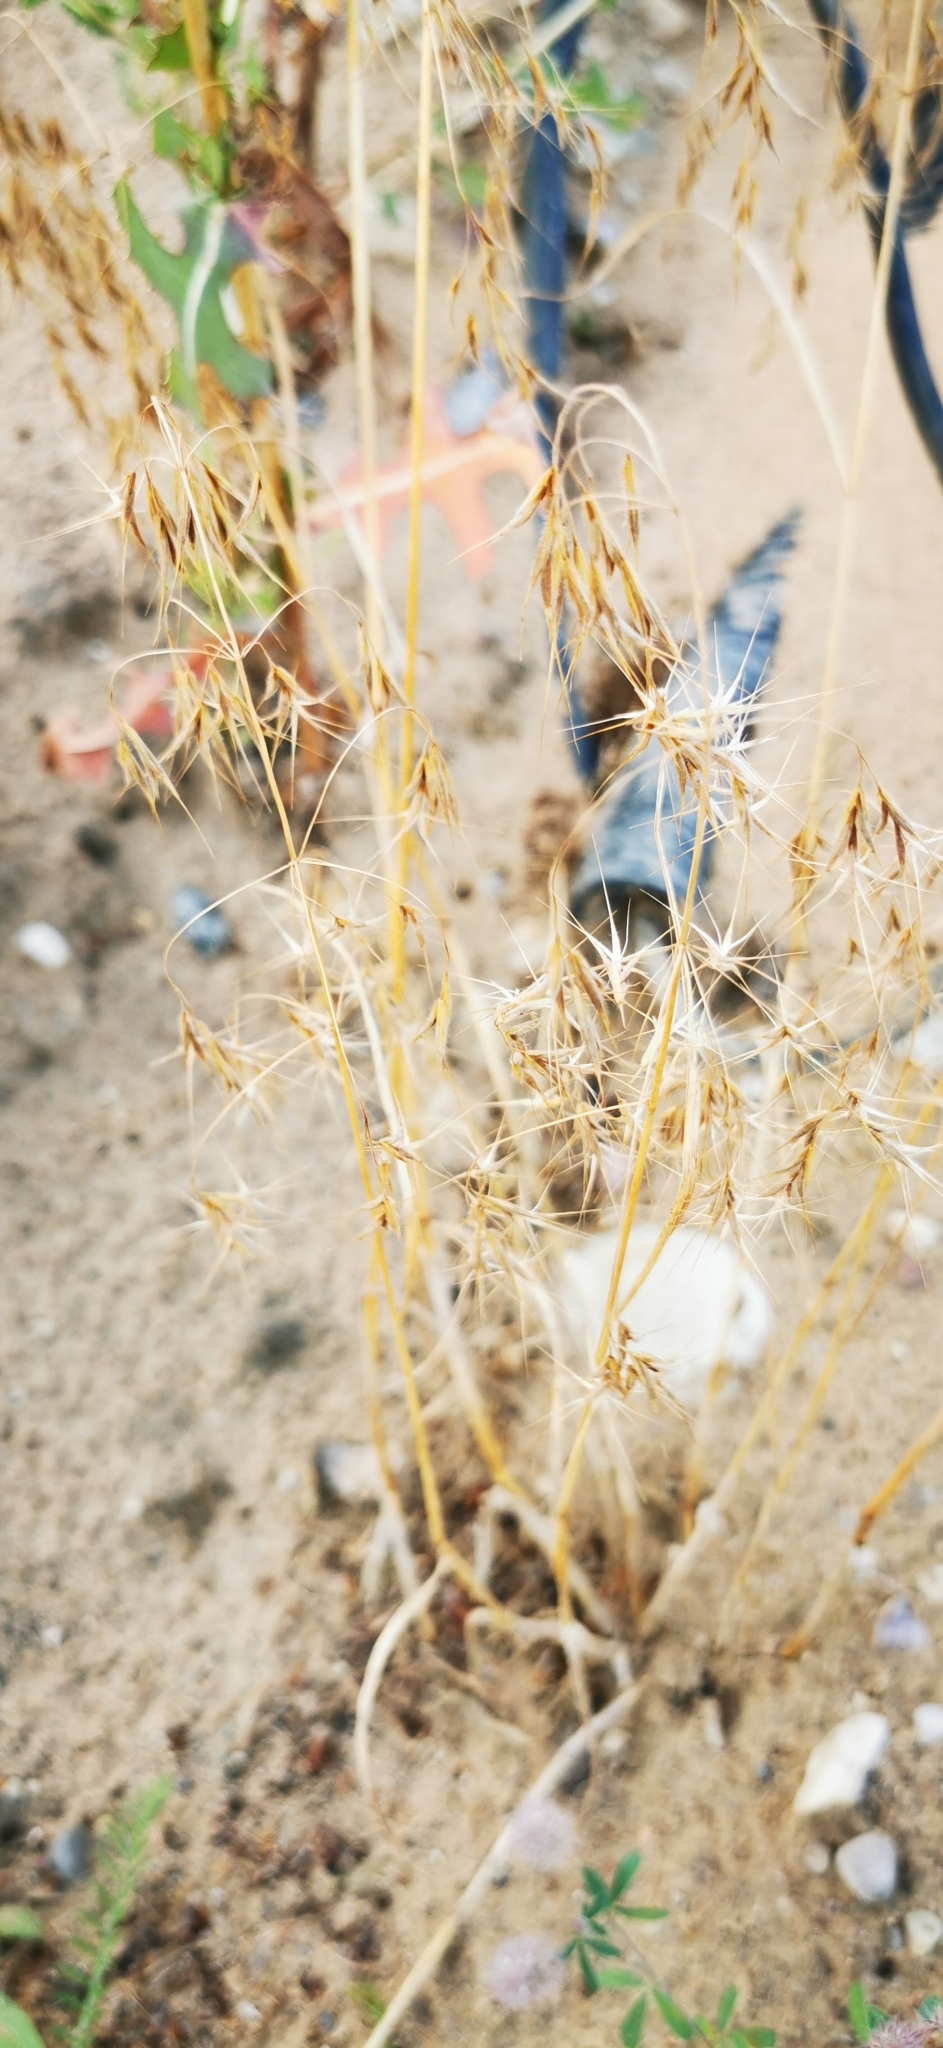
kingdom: Plantae
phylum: Tracheophyta
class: Liliopsida
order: Poales
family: Poaceae
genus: Bromus
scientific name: Bromus tectorum
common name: Cheatgrass
